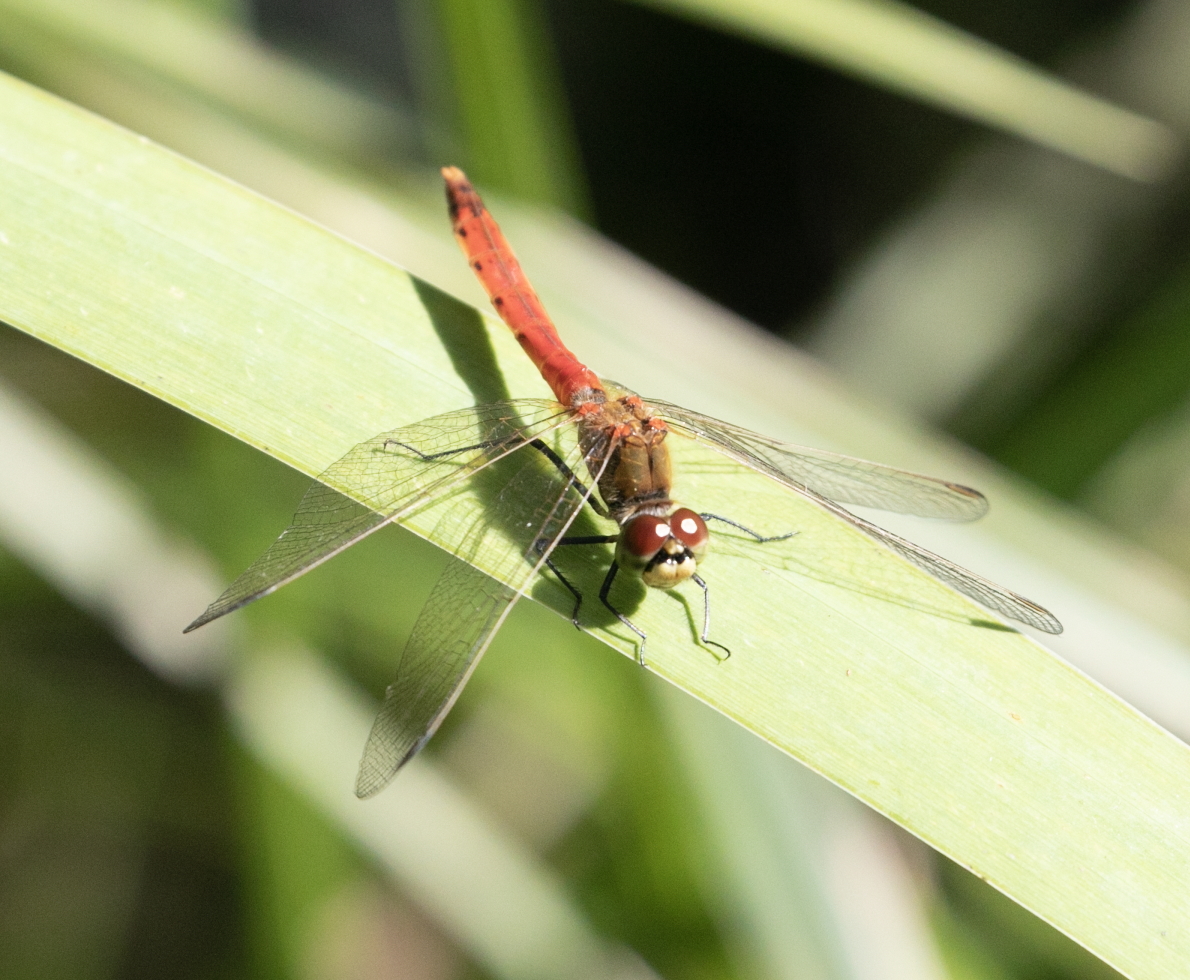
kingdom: Animalia
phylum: Arthropoda
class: Insecta
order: Odonata
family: Libellulidae
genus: Sympetrum
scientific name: Sympetrum depressiusculum
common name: Spotted darter
